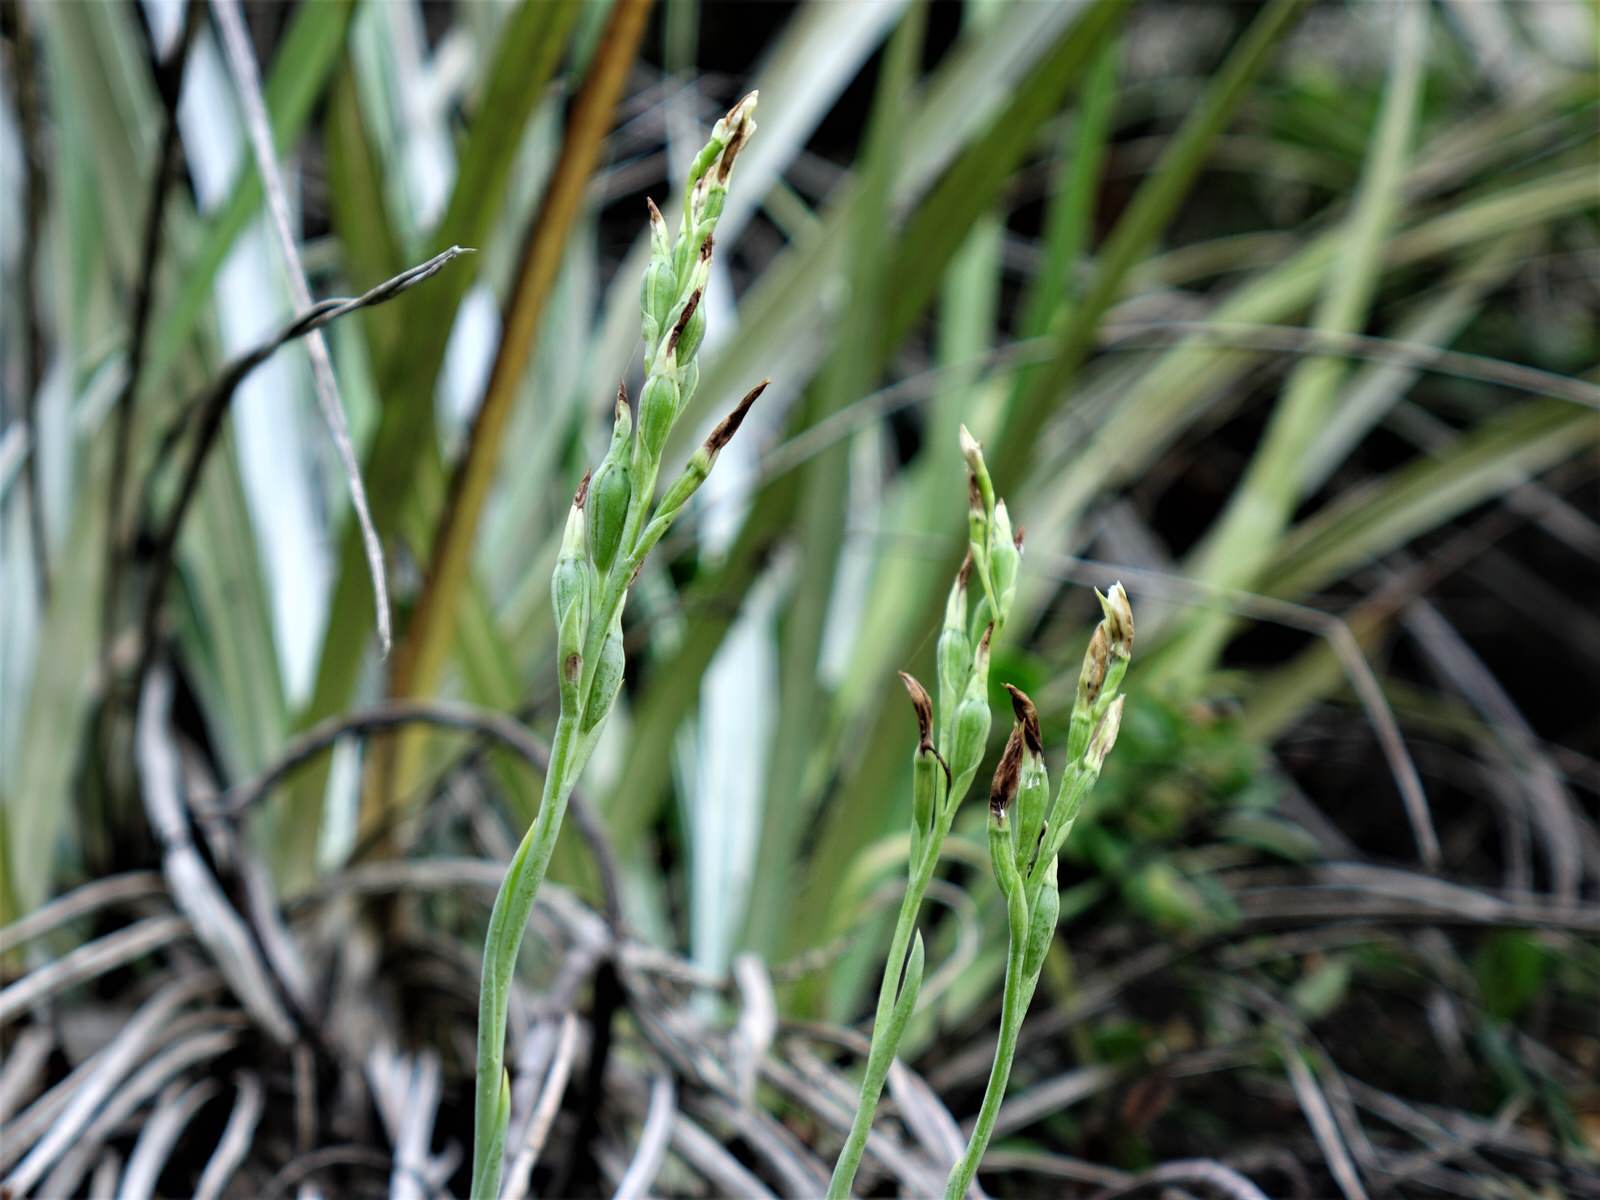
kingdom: Plantae
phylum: Tracheophyta
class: Liliopsida
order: Asparagales
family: Orchidaceae
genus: Thelymitra
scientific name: Thelymitra
